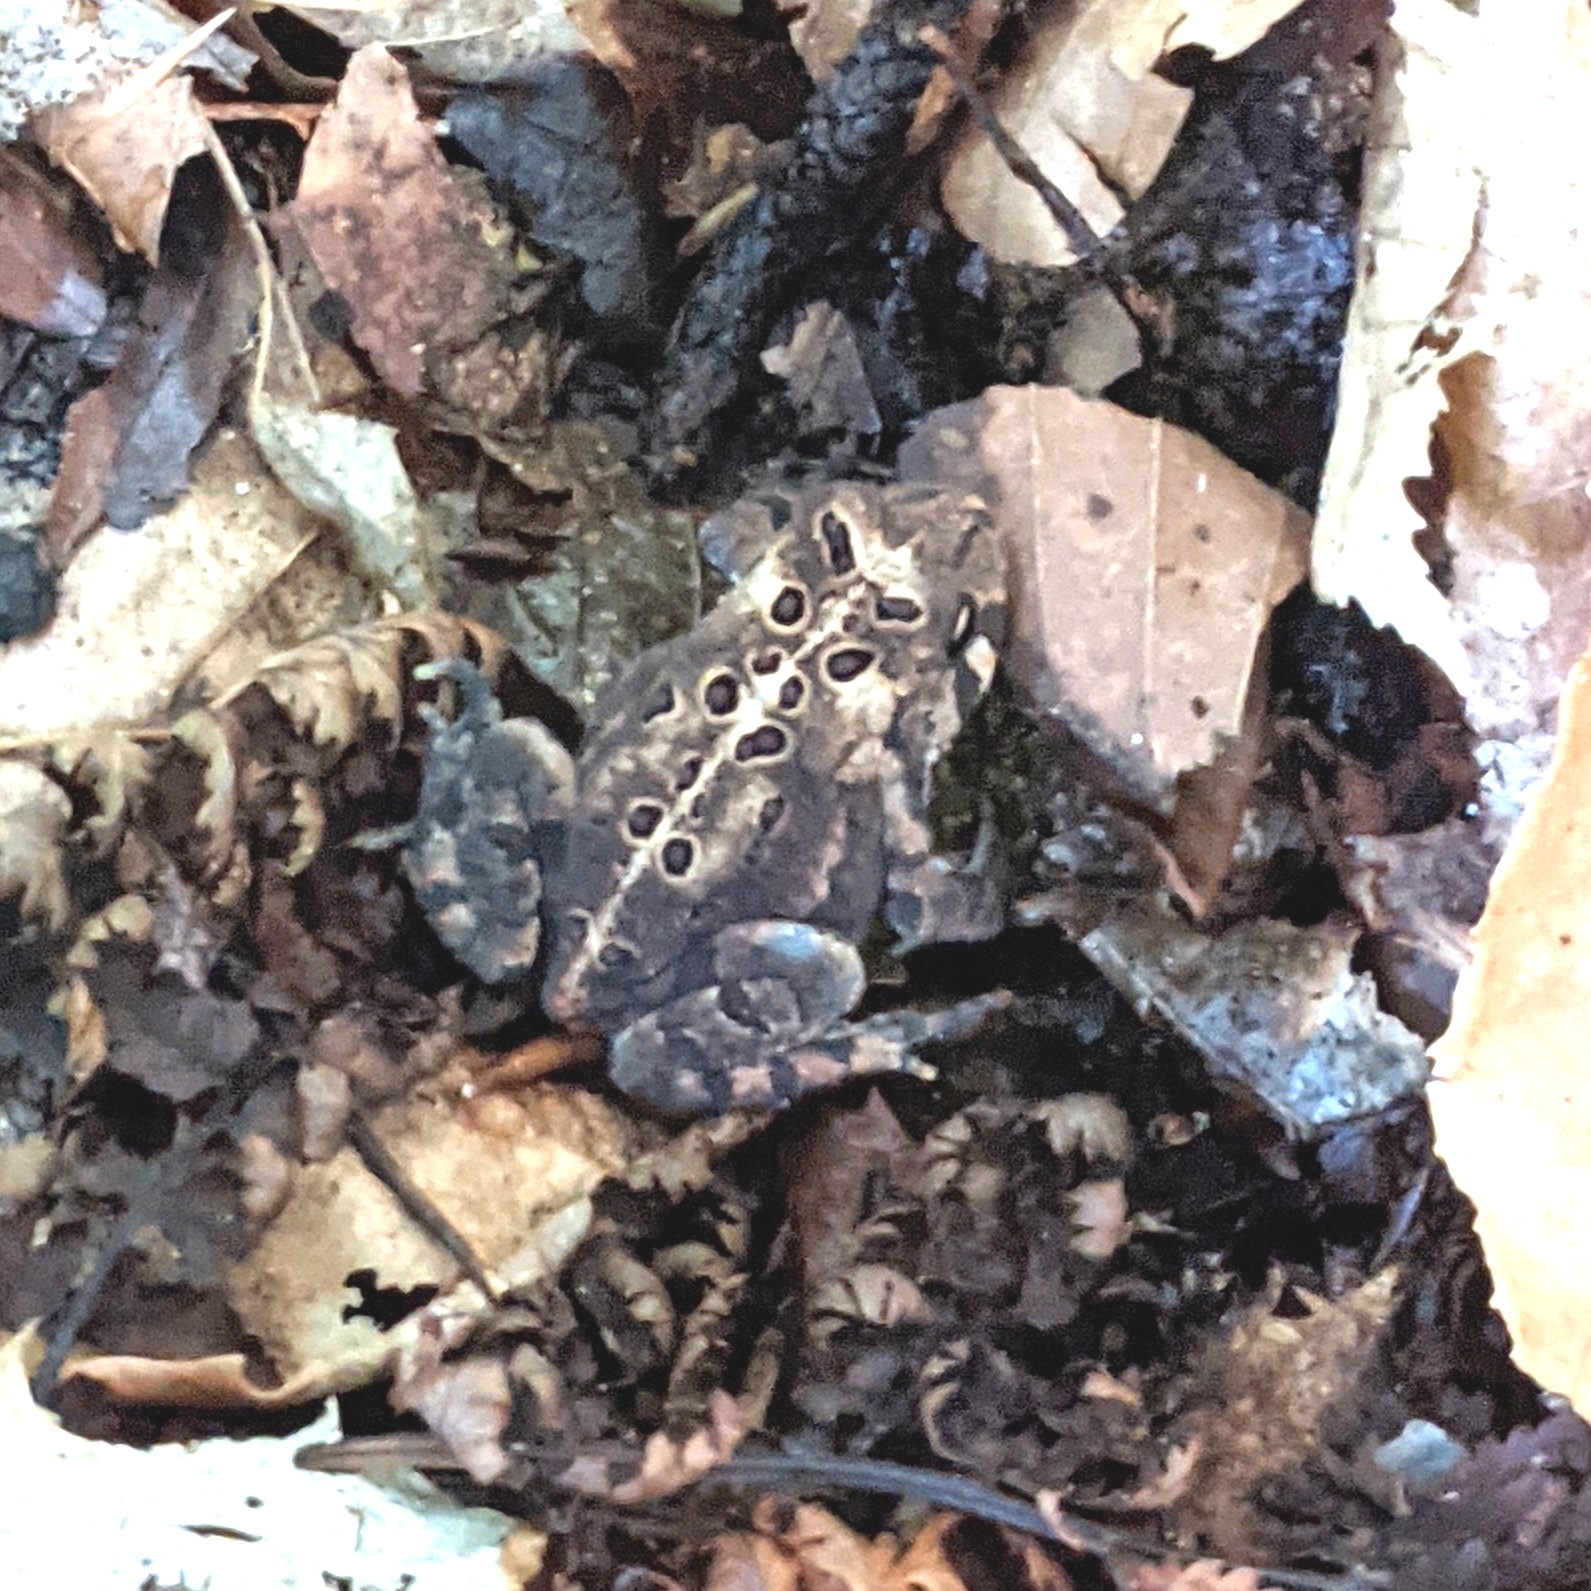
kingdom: Animalia
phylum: Chordata
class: Amphibia
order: Anura
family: Bufonidae
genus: Anaxyrus
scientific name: Anaxyrus americanus
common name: American toad
